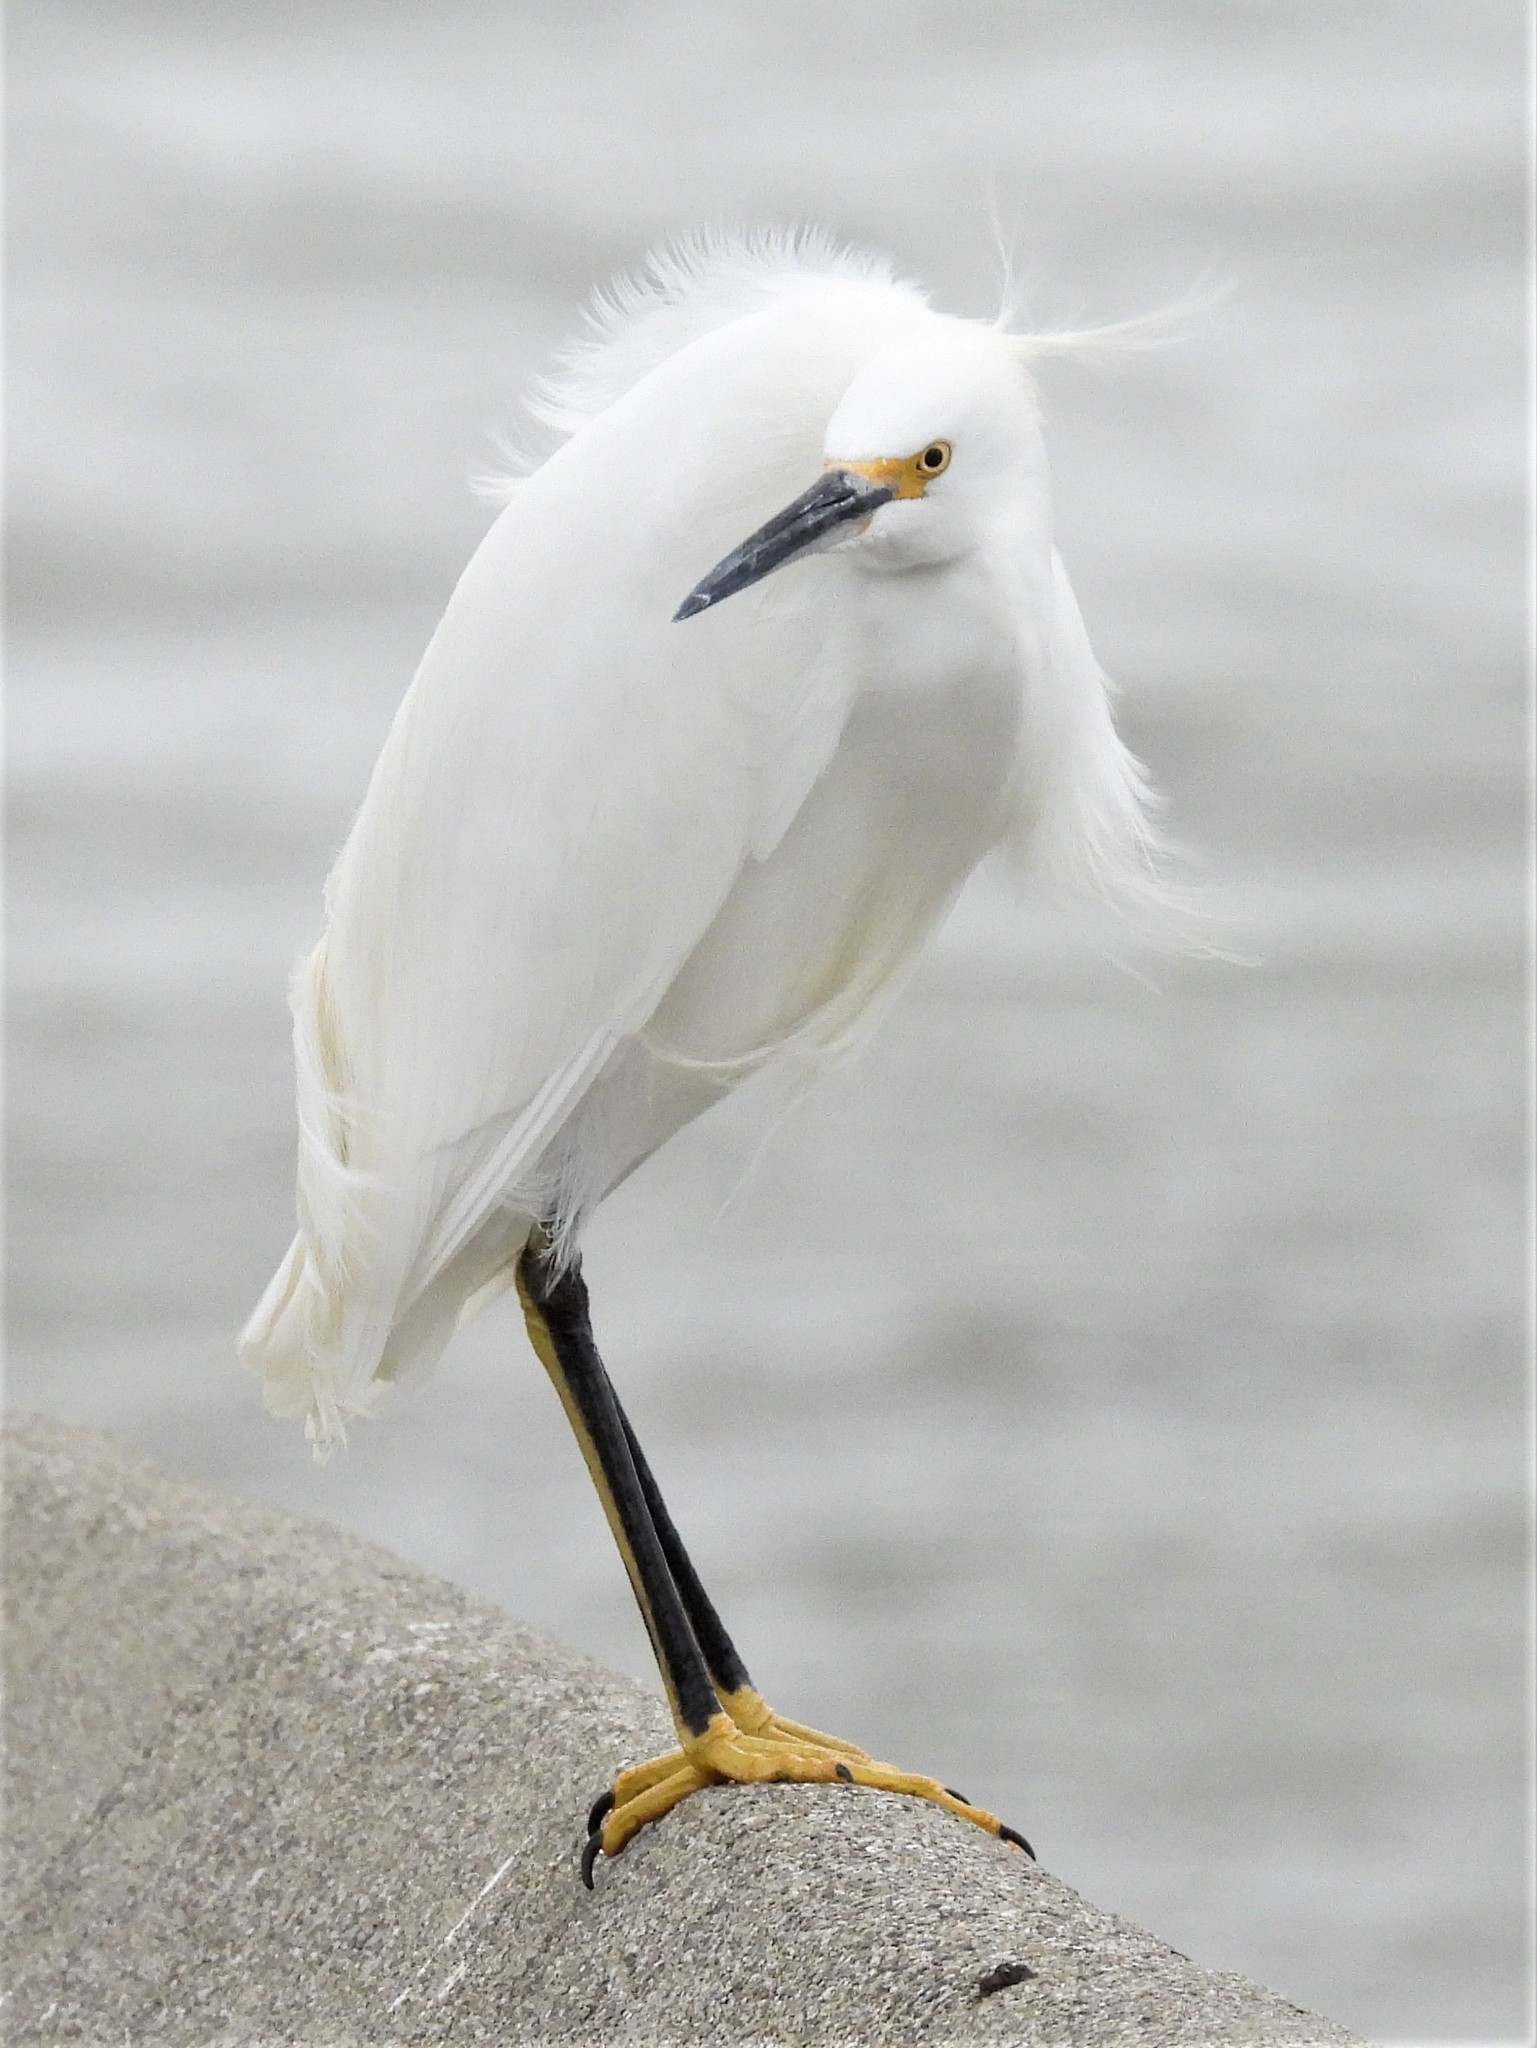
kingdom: Animalia
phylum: Chordata
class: Aves
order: Pelecaniformes
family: Ardeidae
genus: Egretta
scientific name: Egretta thula
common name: Snowy egret
